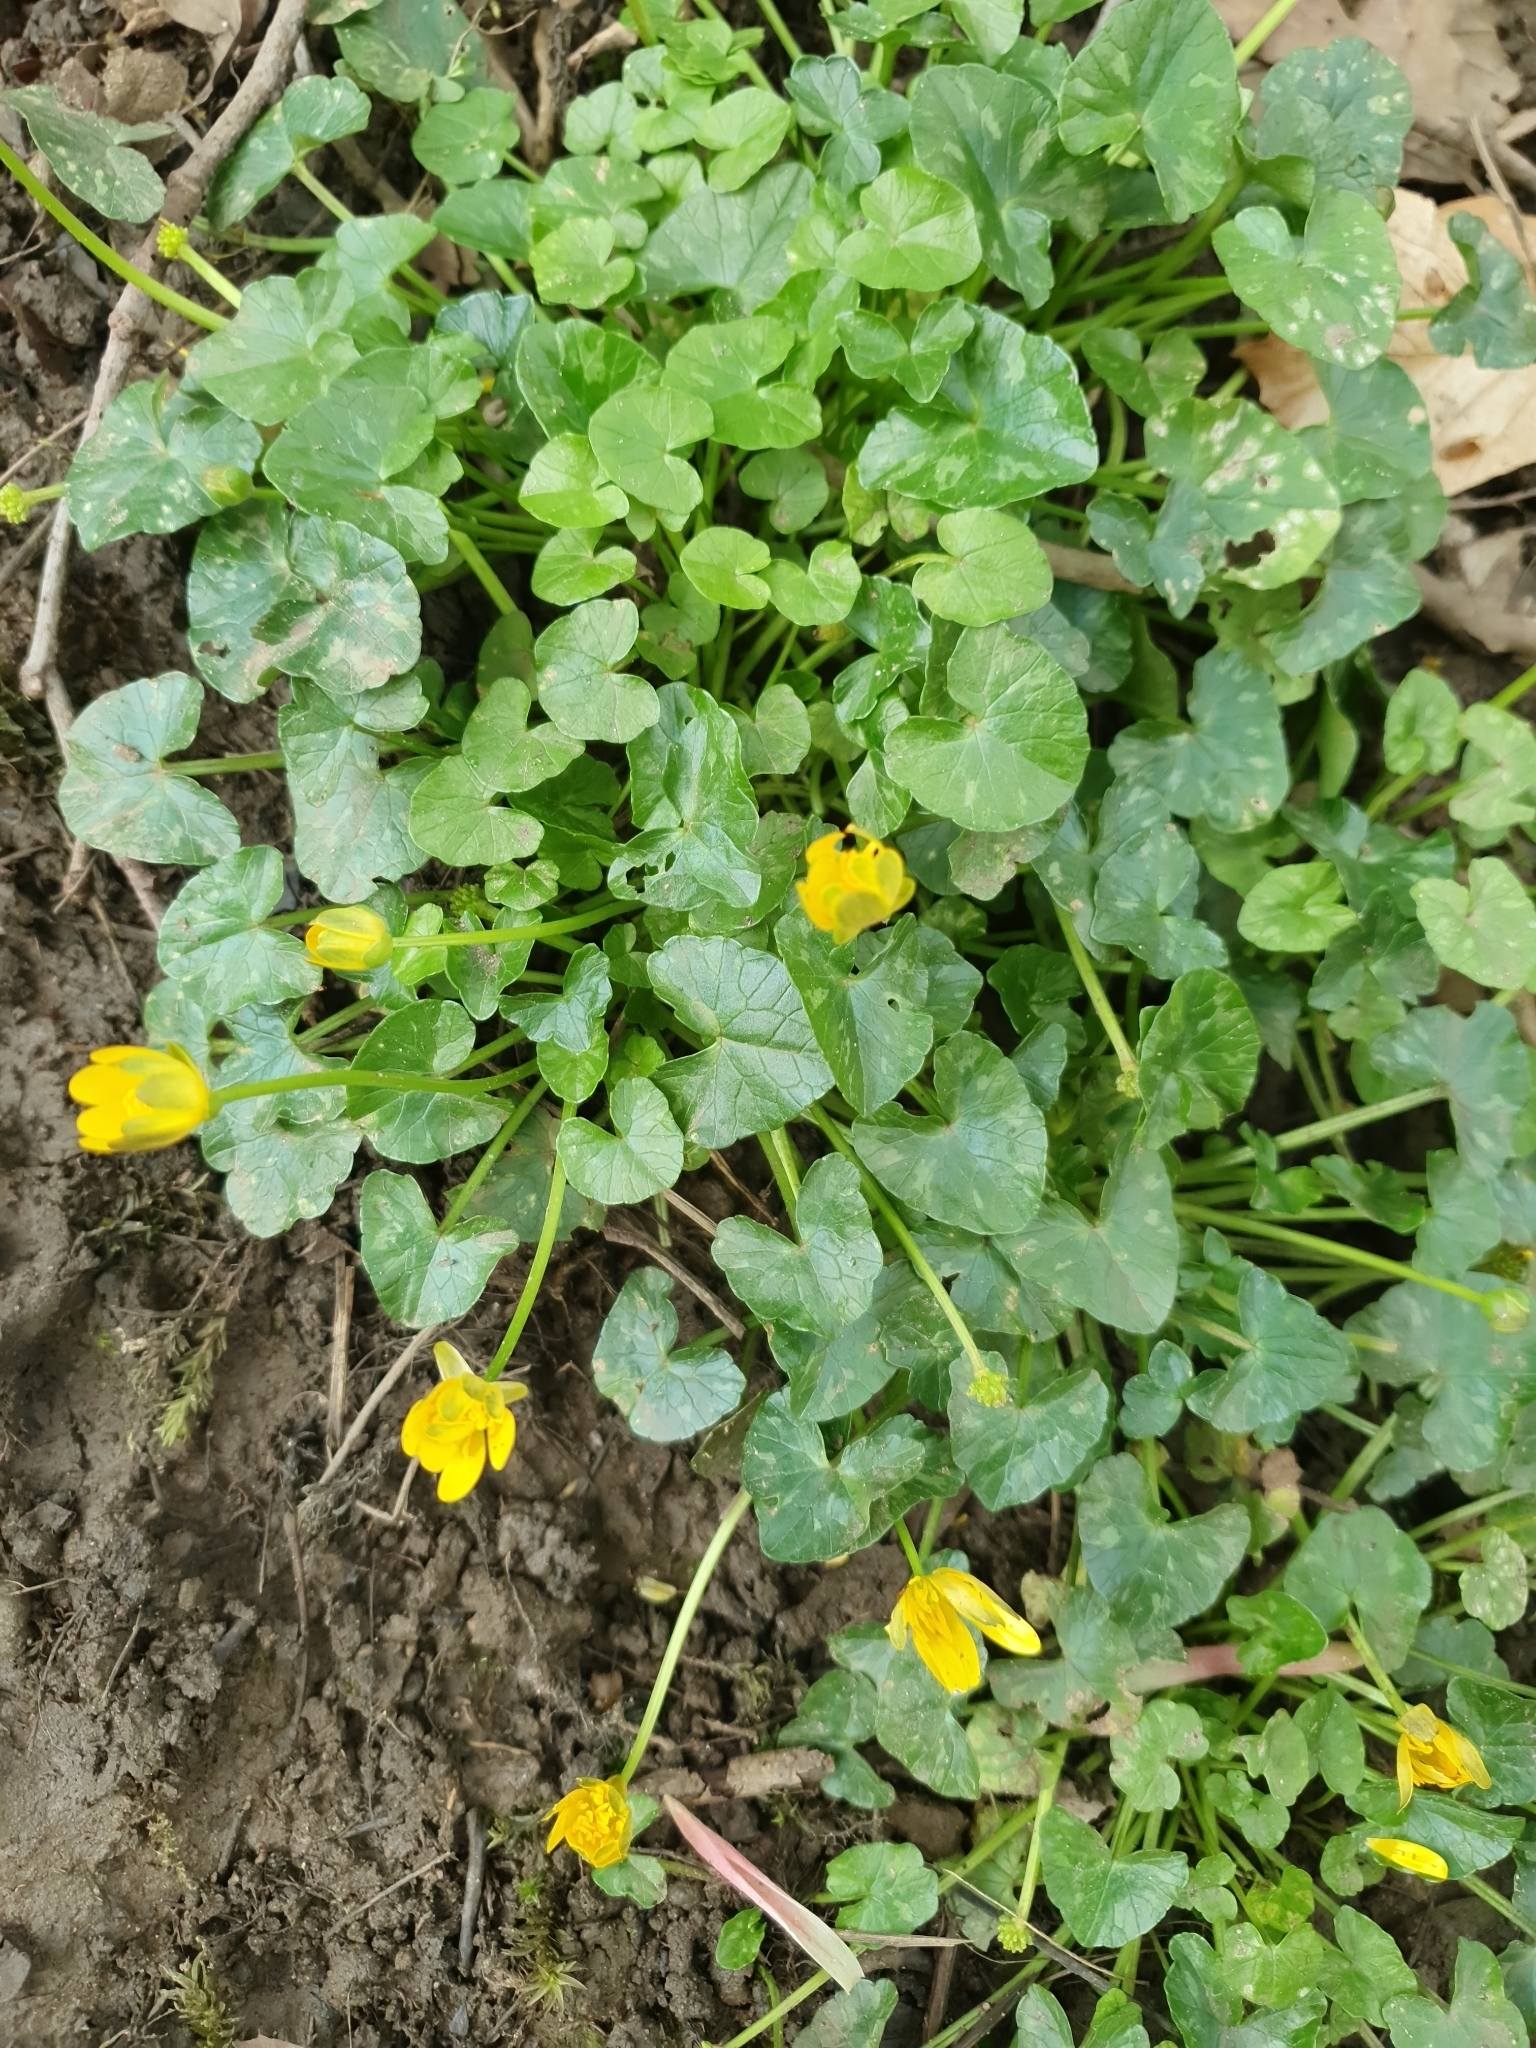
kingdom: Plantae
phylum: Tracheophyta
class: Magnoliopsida
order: Ranunculales
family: Ranunculaceae
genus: Ficaria
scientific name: Ficaria verna
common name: Lesser celandine
